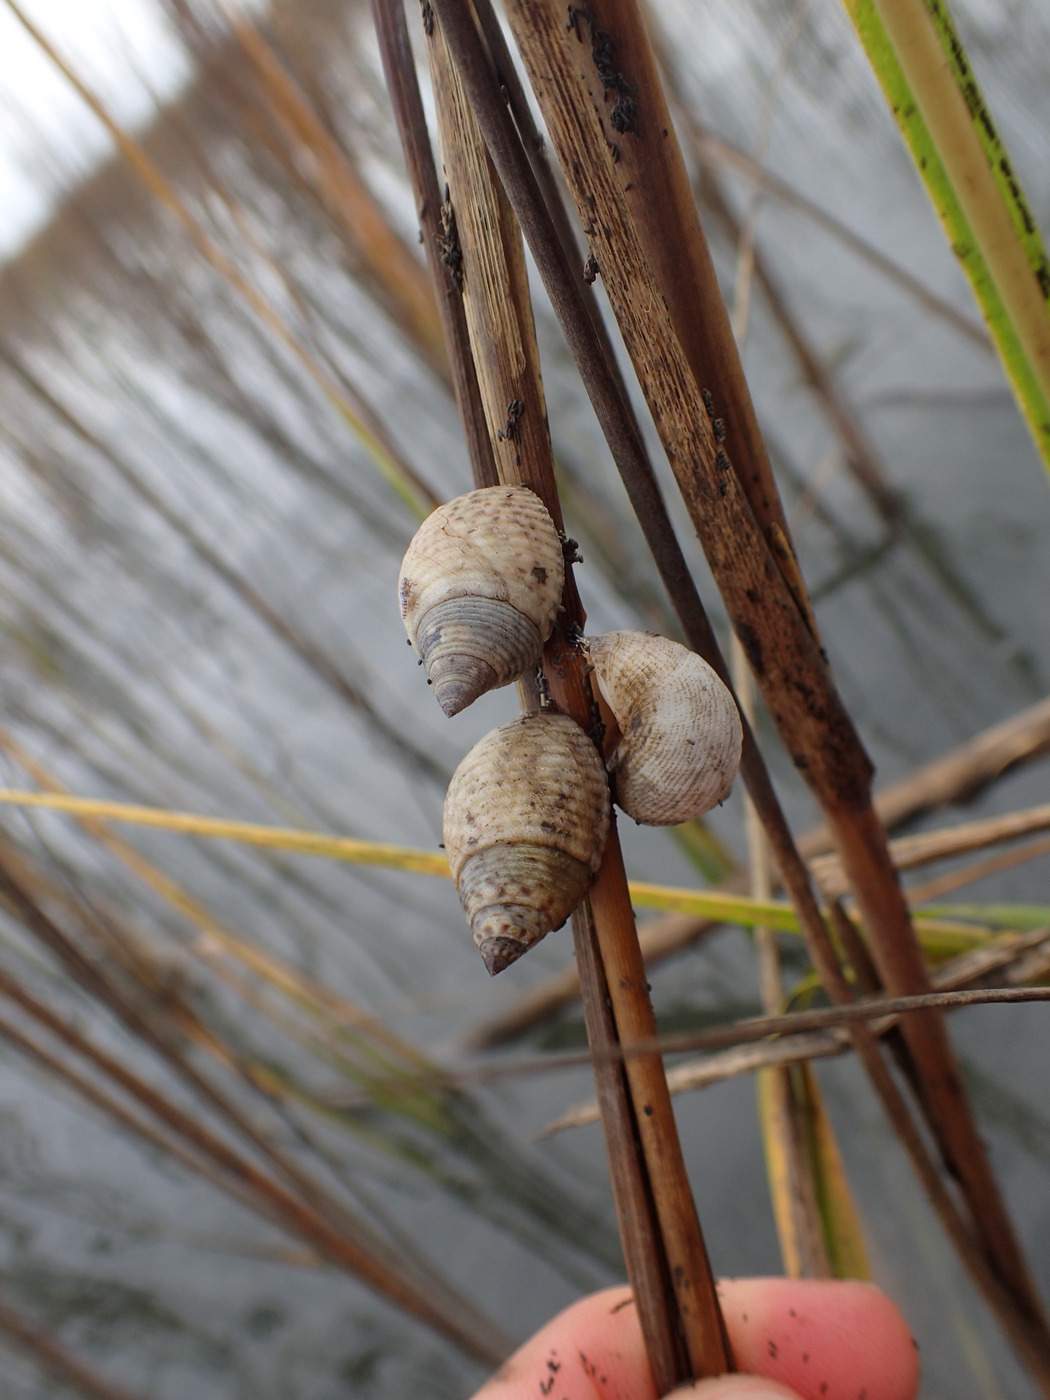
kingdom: Animalia
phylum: Mollusca
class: Gastropoda
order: Littorinimorpha
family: Littorinidae
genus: Littoraria
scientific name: Littoraria irrorata
